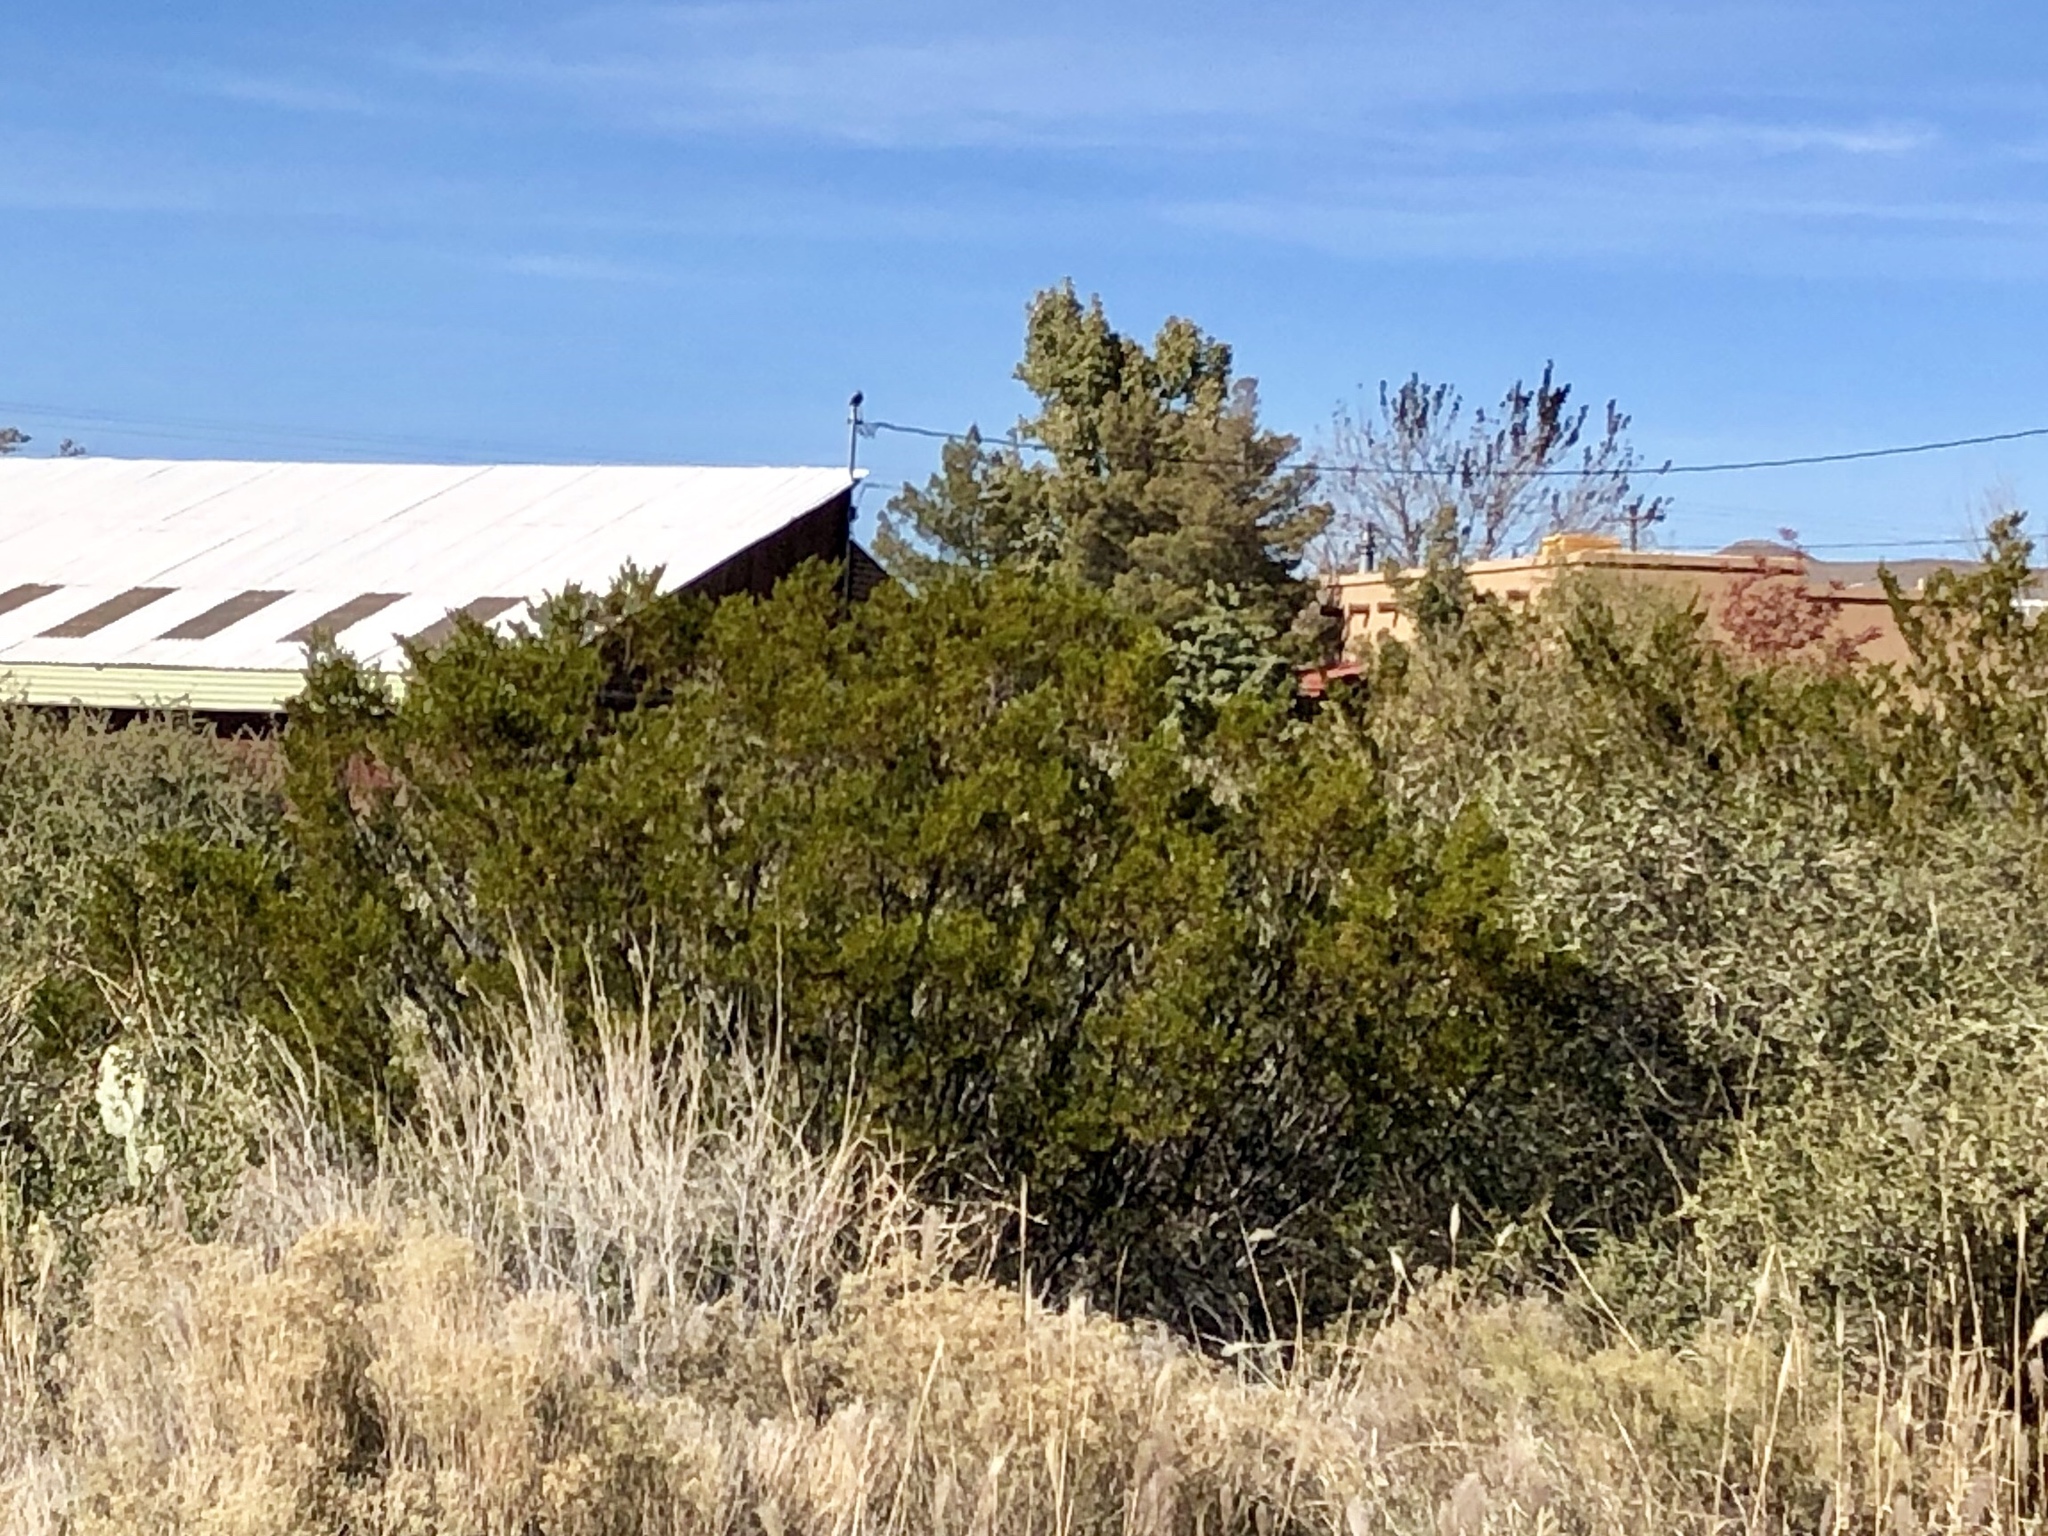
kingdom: Plantae
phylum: Tracheophyta
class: Magnoliopsida
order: Zygophyllales
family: Zygophyllaceae
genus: Larrea
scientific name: Larrea tridentata
